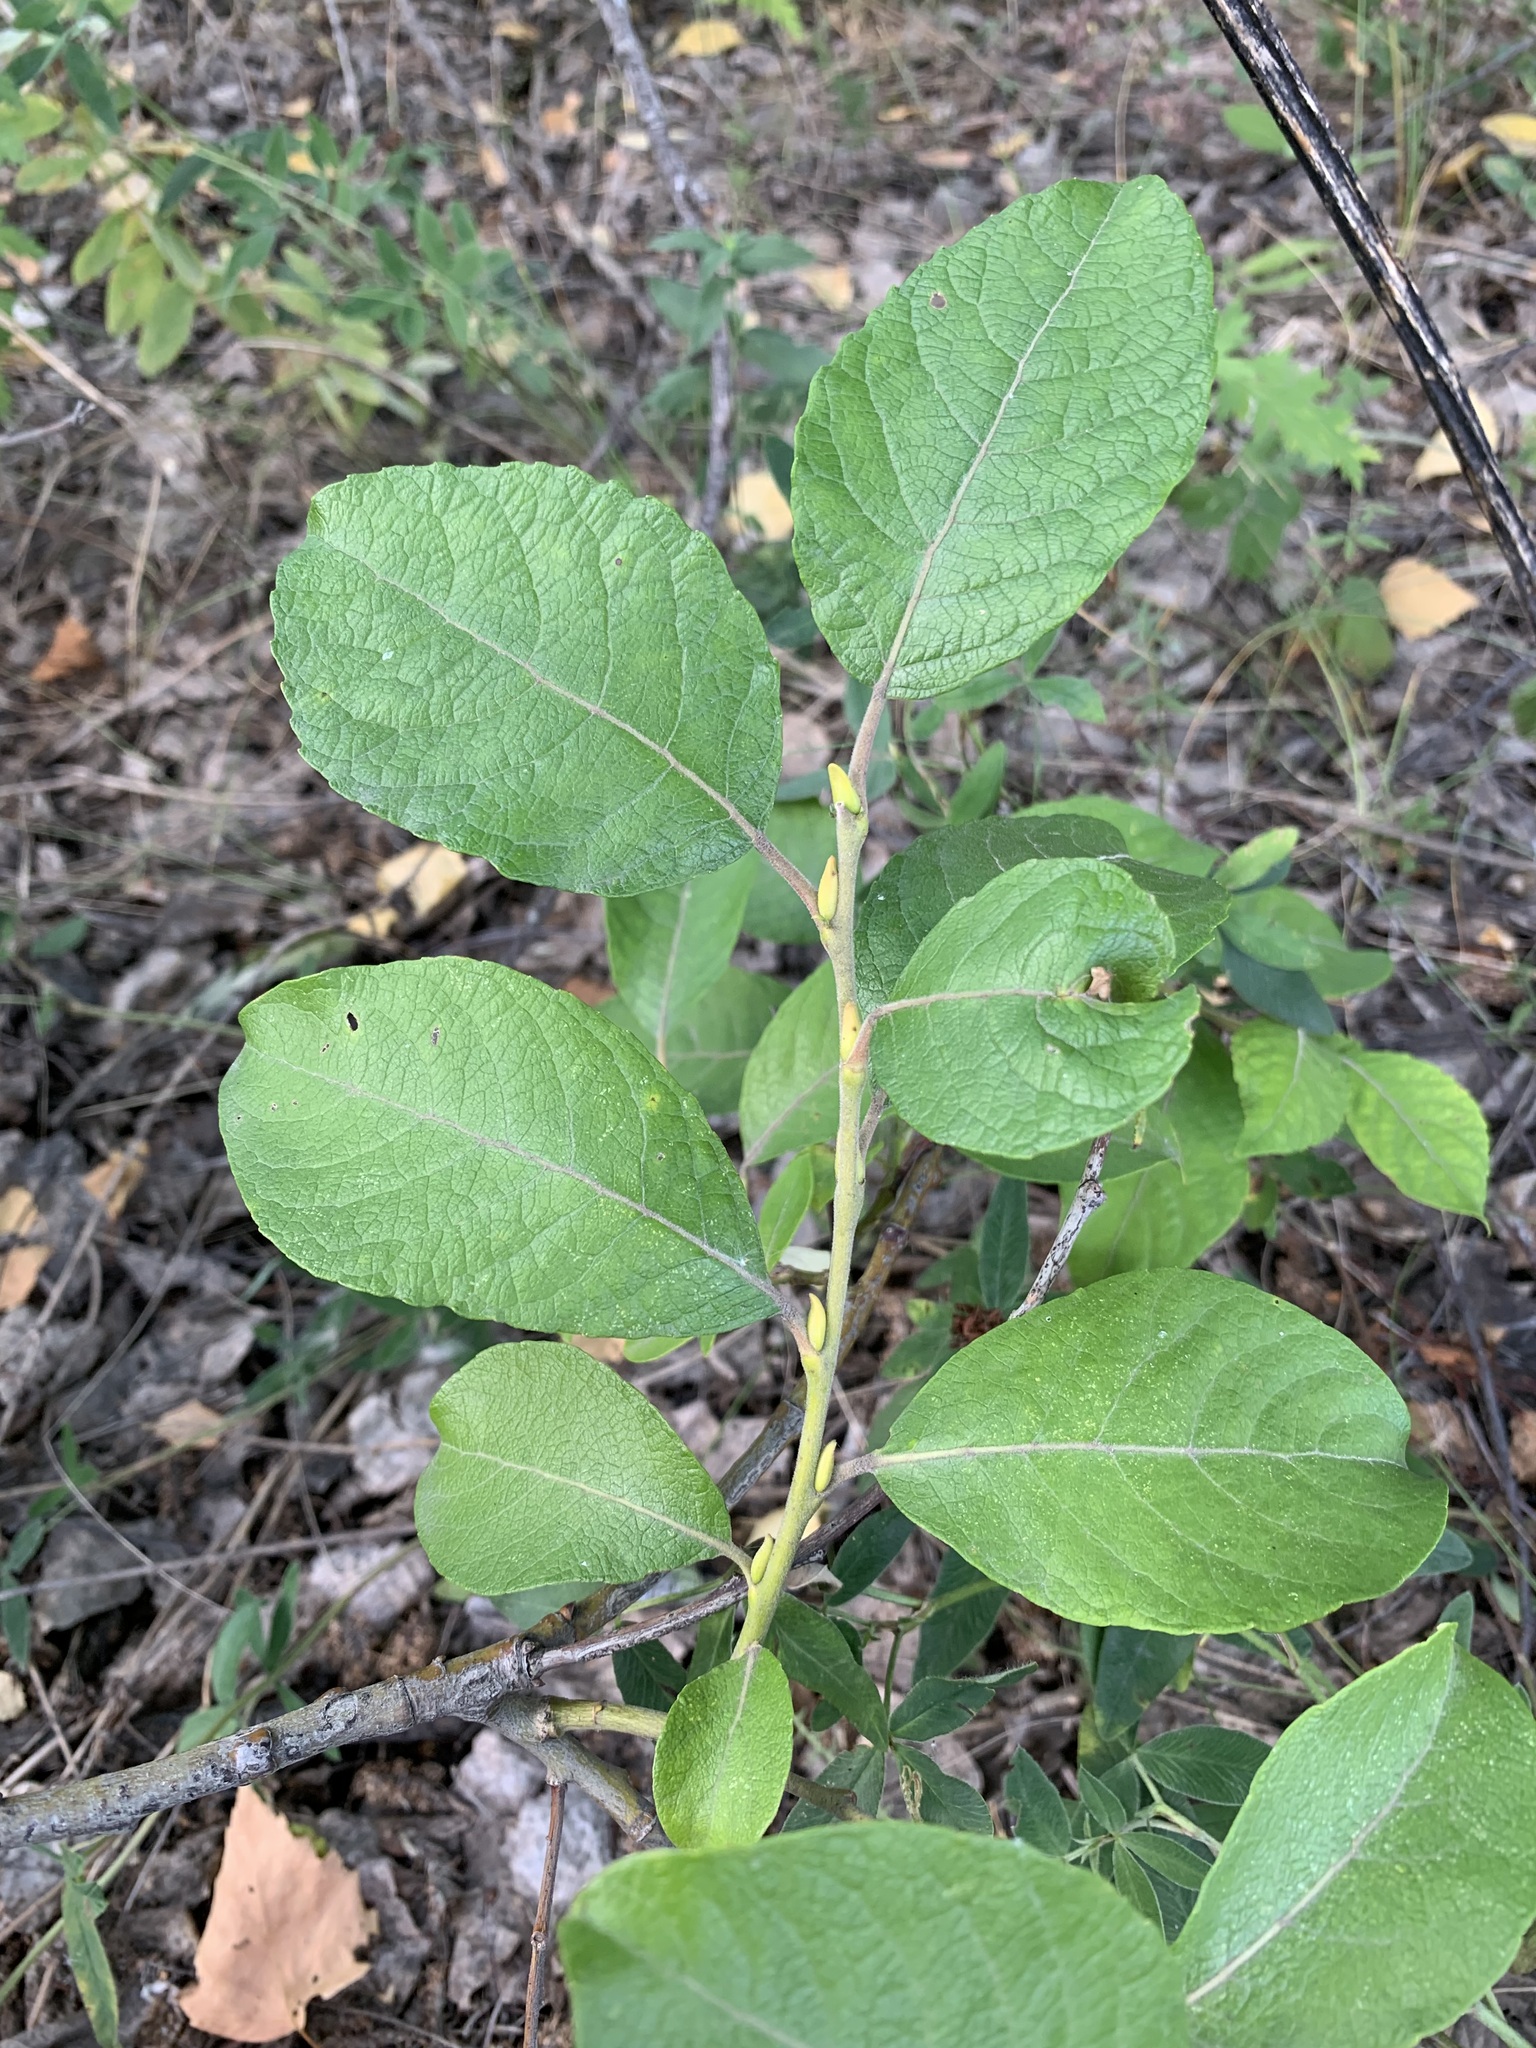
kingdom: Plantae
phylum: Tracheophyta
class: Magnoliopsida
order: Malpighiales
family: Salicaceae
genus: Salix
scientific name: Salix caprea
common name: Goat willow
